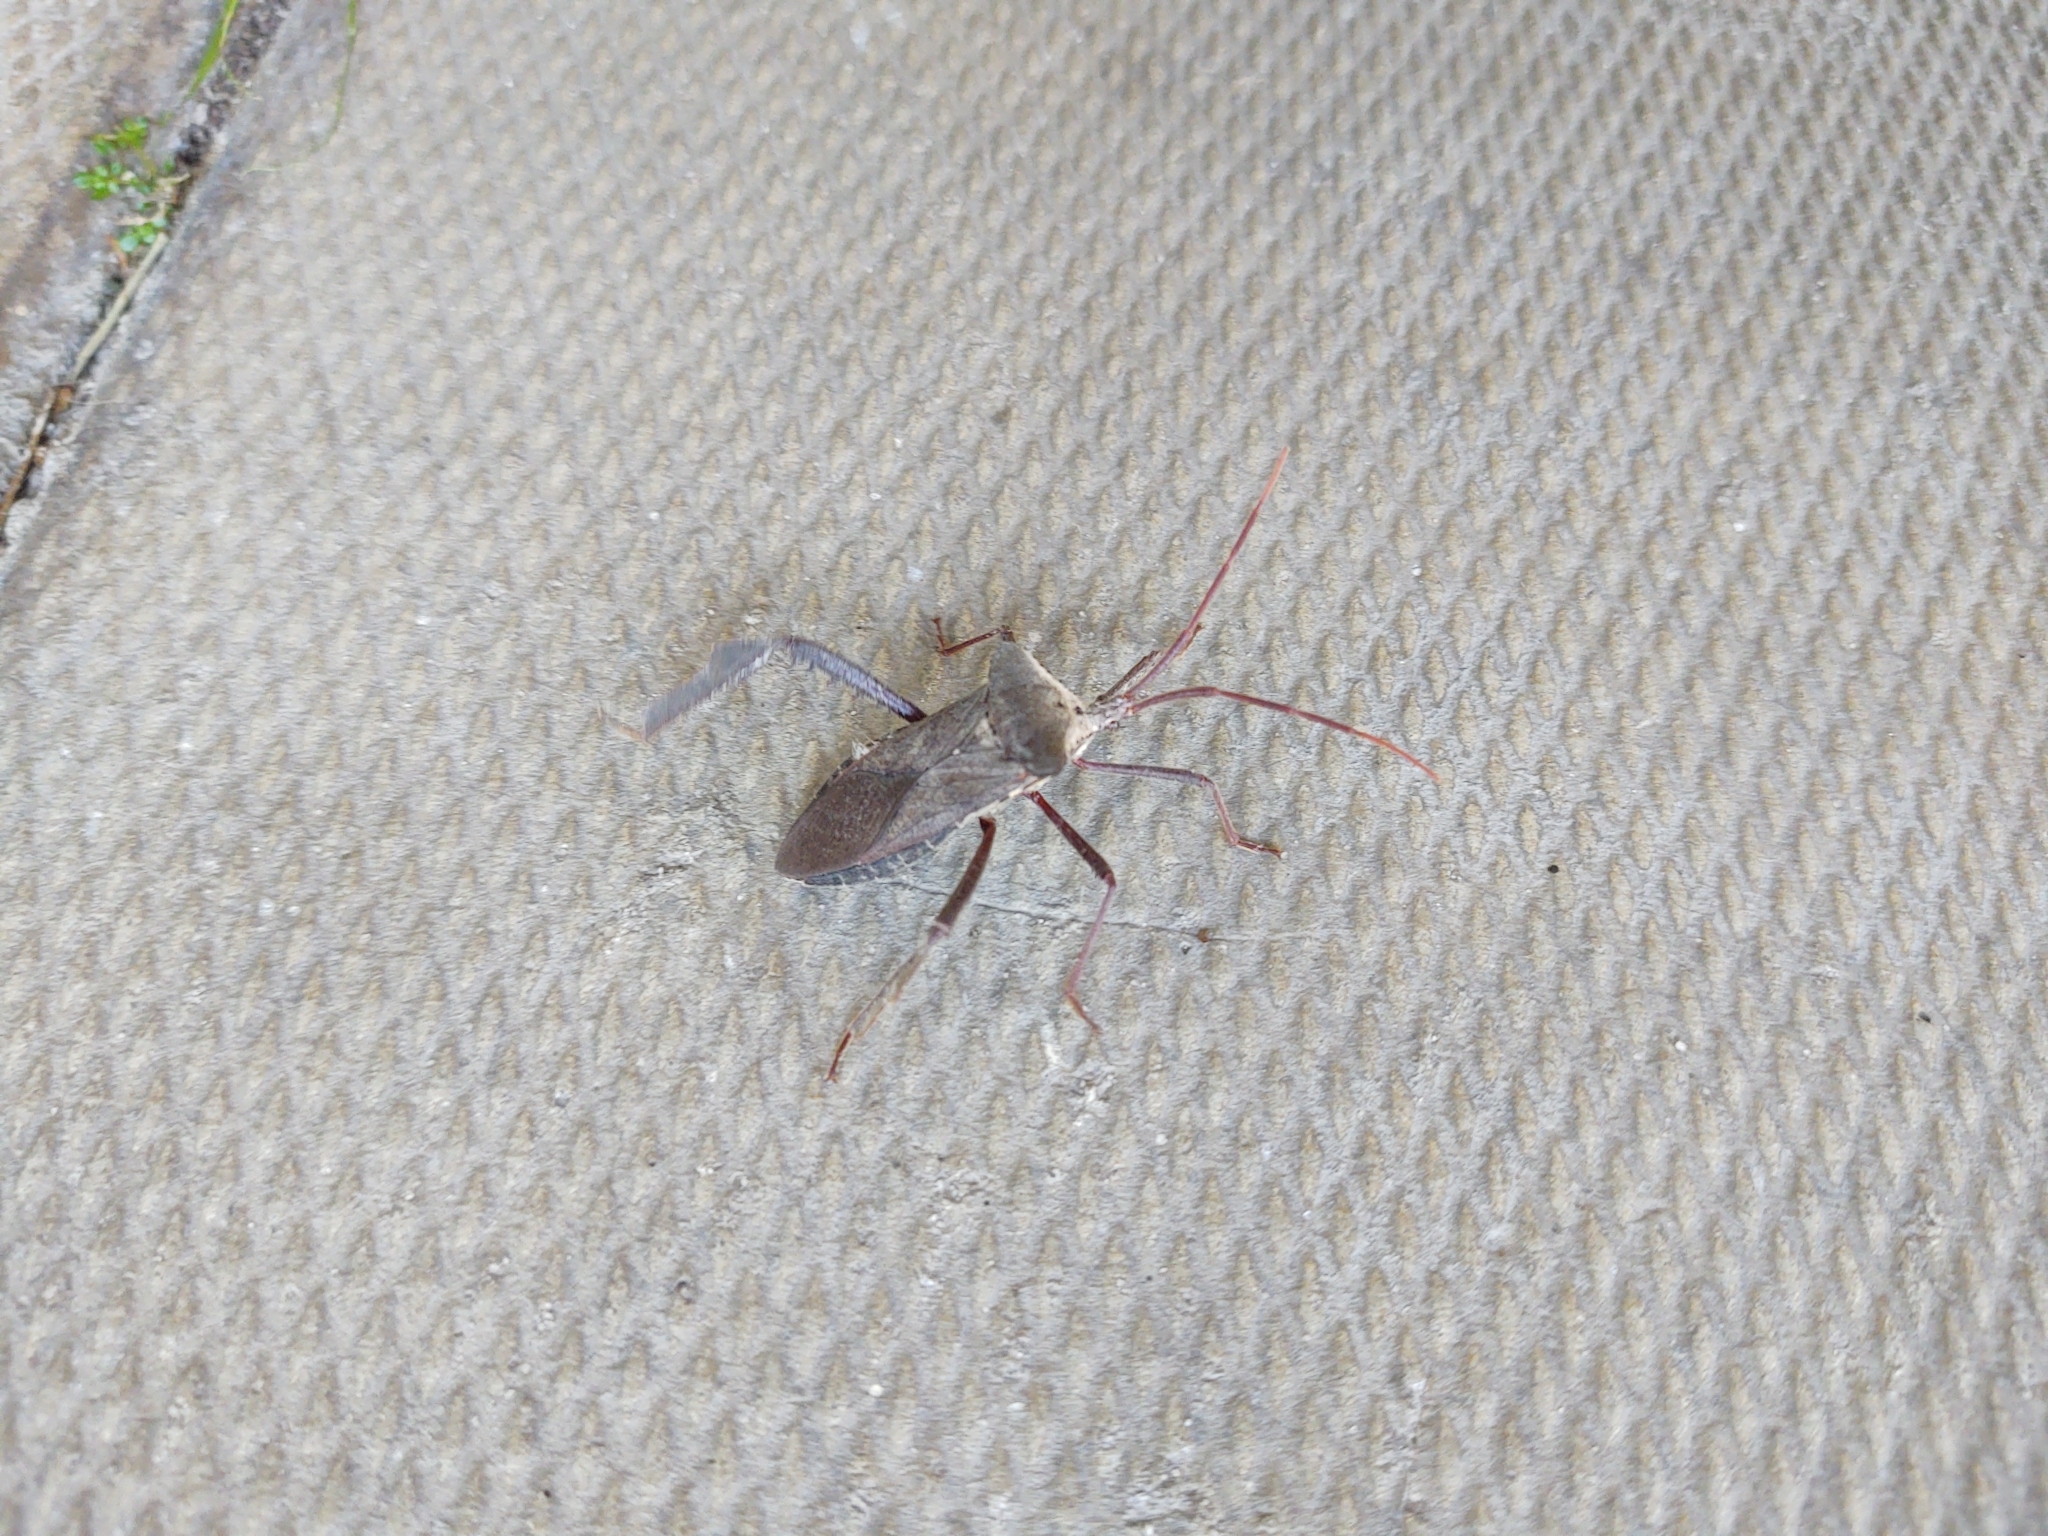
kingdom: Animalia
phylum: Arthropoda
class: Insecta
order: Hemiptera
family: Coreidae
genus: Acanthocephala
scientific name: Acanthocephala declivis
